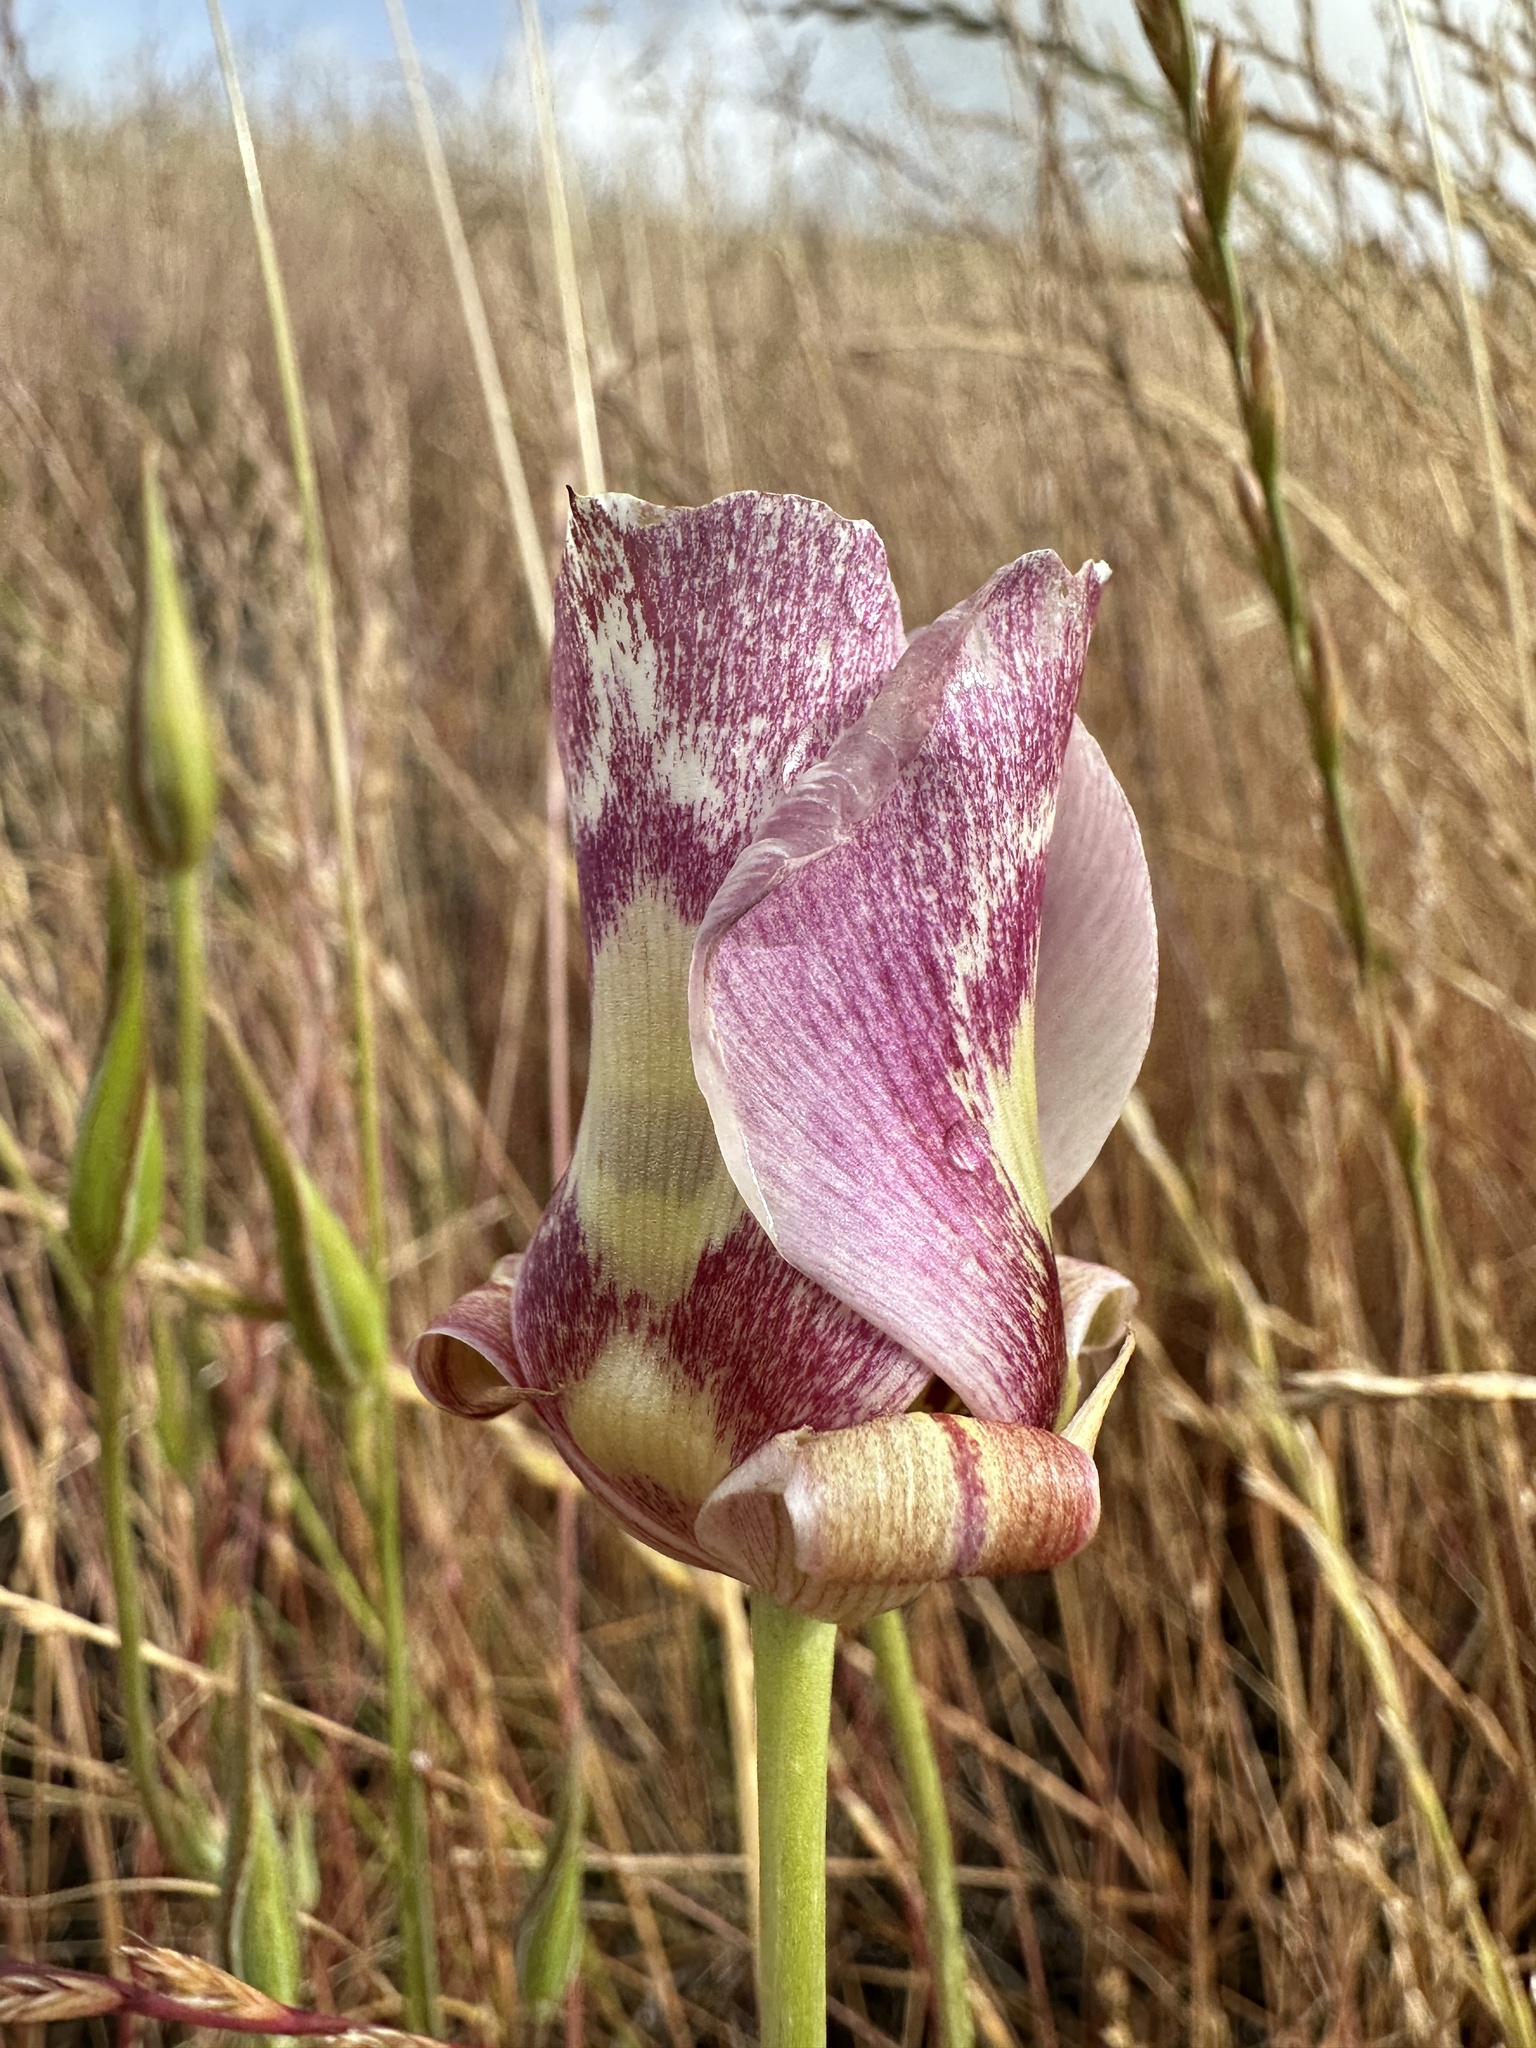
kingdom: Plantae
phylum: Tracheophyta
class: Liliopsida
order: Liliales
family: Liliaceae
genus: Calochortus
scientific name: Calochortus argillosus
